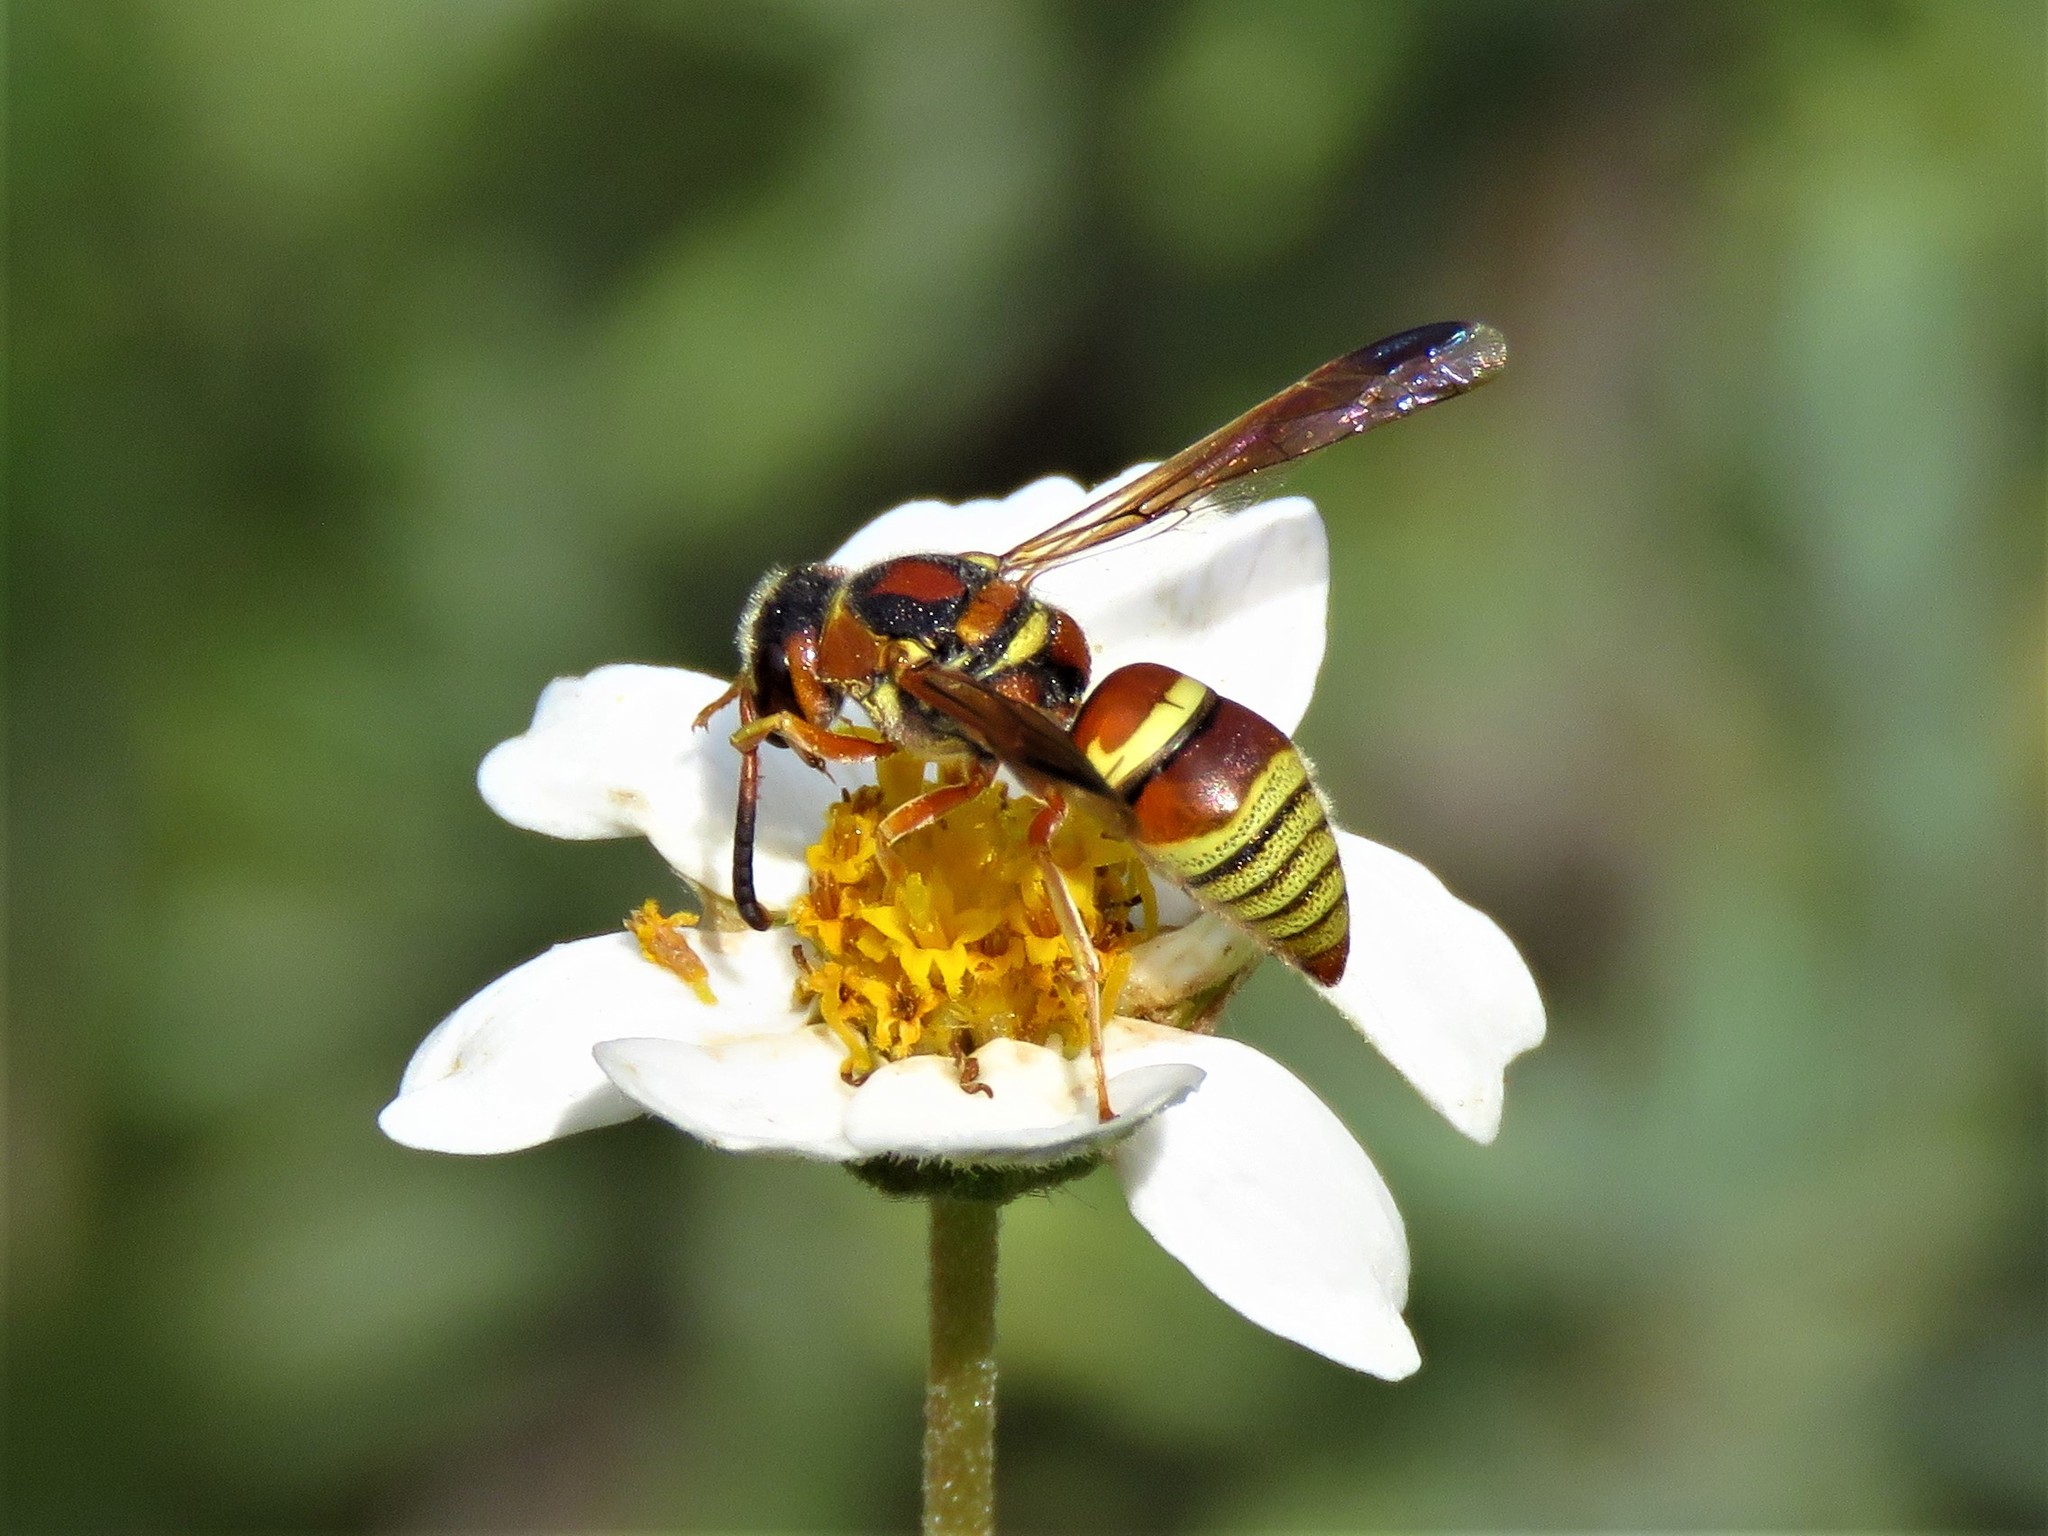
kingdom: Animalia
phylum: Arthropoda
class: Insecta
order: Hymenoptera
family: Eumenidae
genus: Euodynerus
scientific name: Euodynerus pratensis
